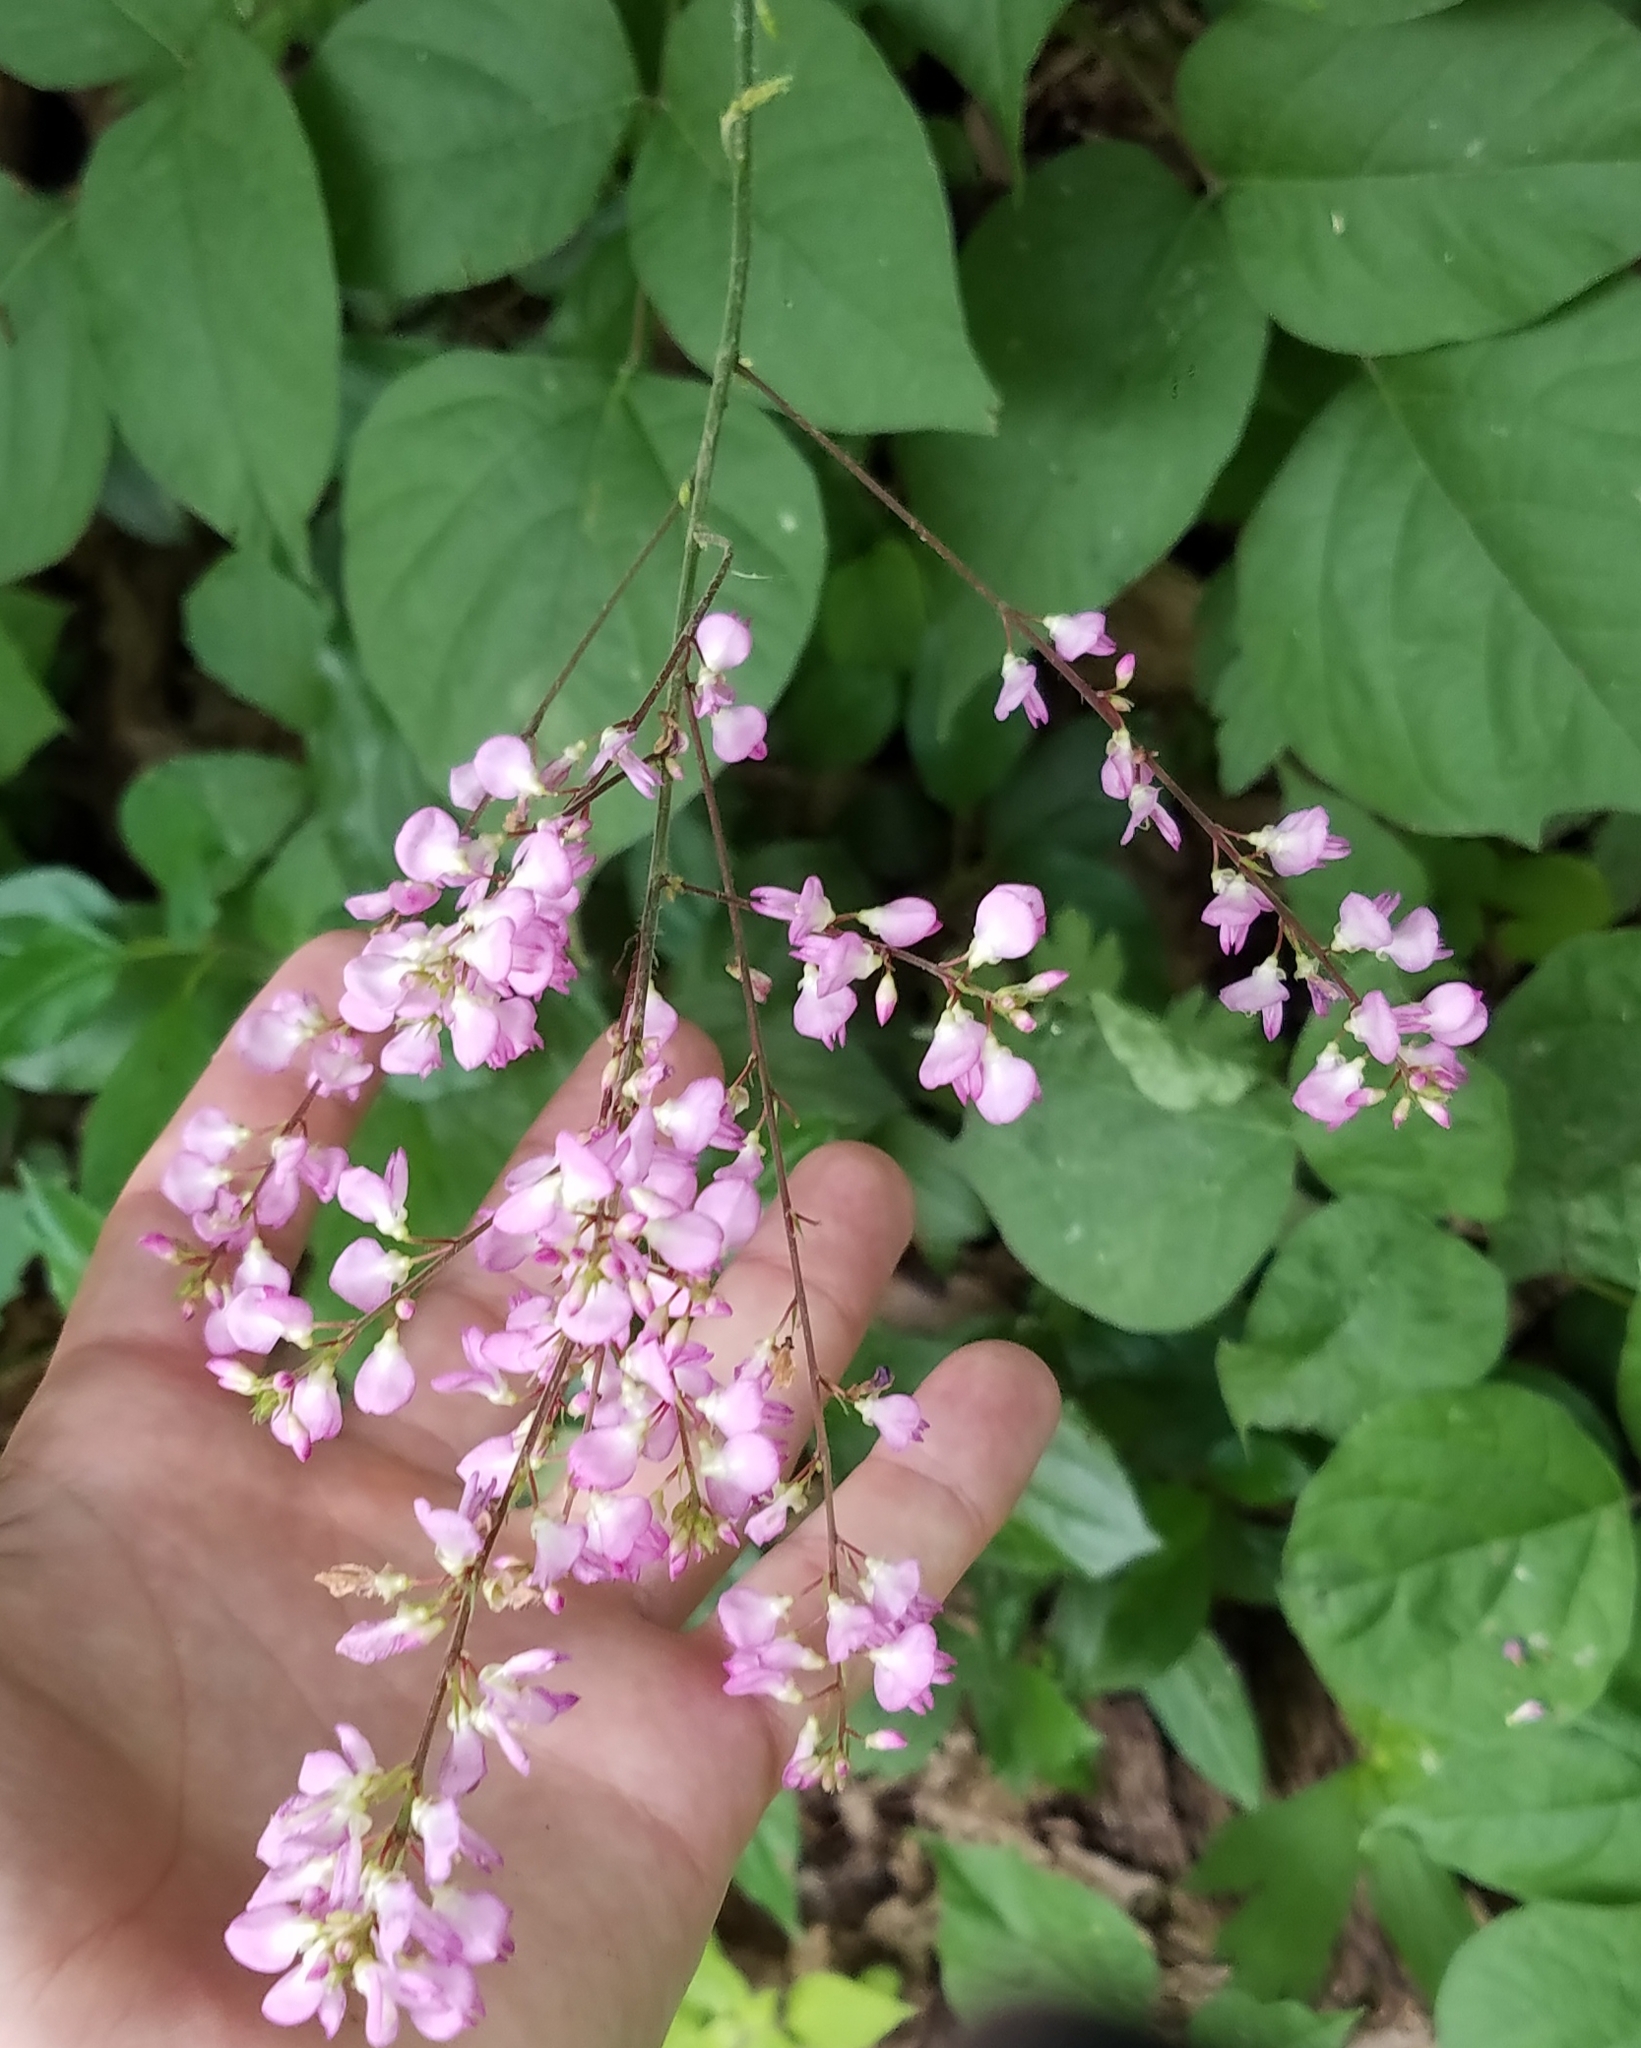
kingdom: Plantae
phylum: Tracheophyta
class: Magnoliopsida
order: Fabales
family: Fabaceae
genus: Hylodesmum
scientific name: Hylodesmum glutinosum
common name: Clustered-leaved tick-trefoil
